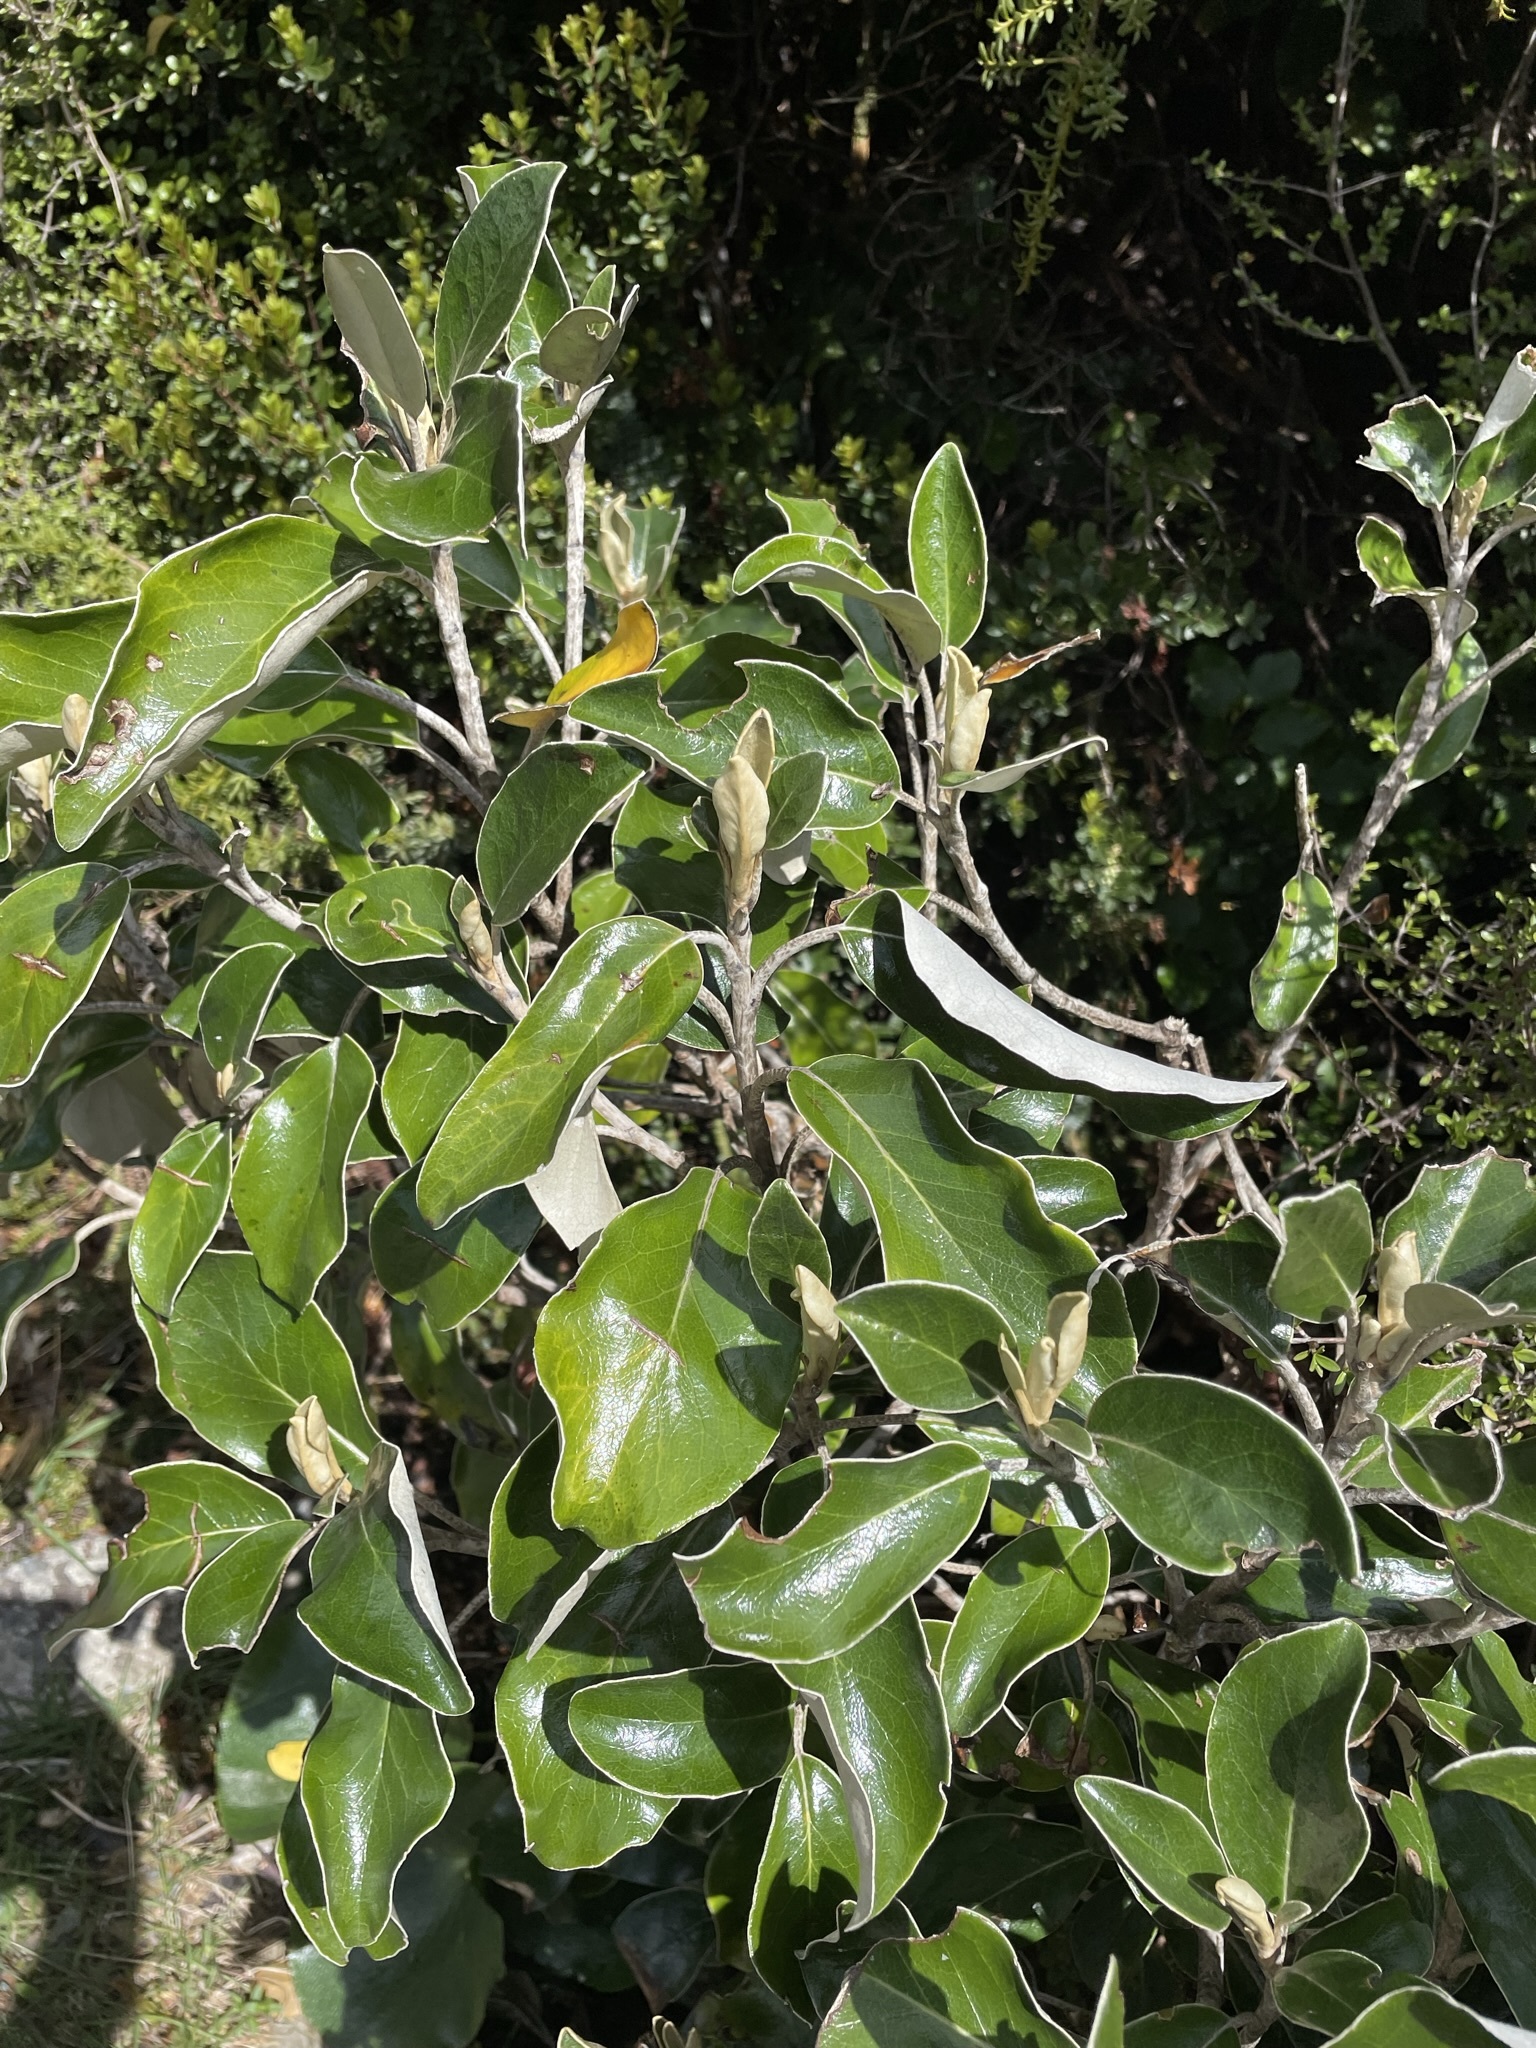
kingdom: Plantae
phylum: Tracheophyta
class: Magnoliopsida
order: Asterales
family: Asteraceae
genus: Brachyglottis
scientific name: Brachyglottis elaeagnifolia
